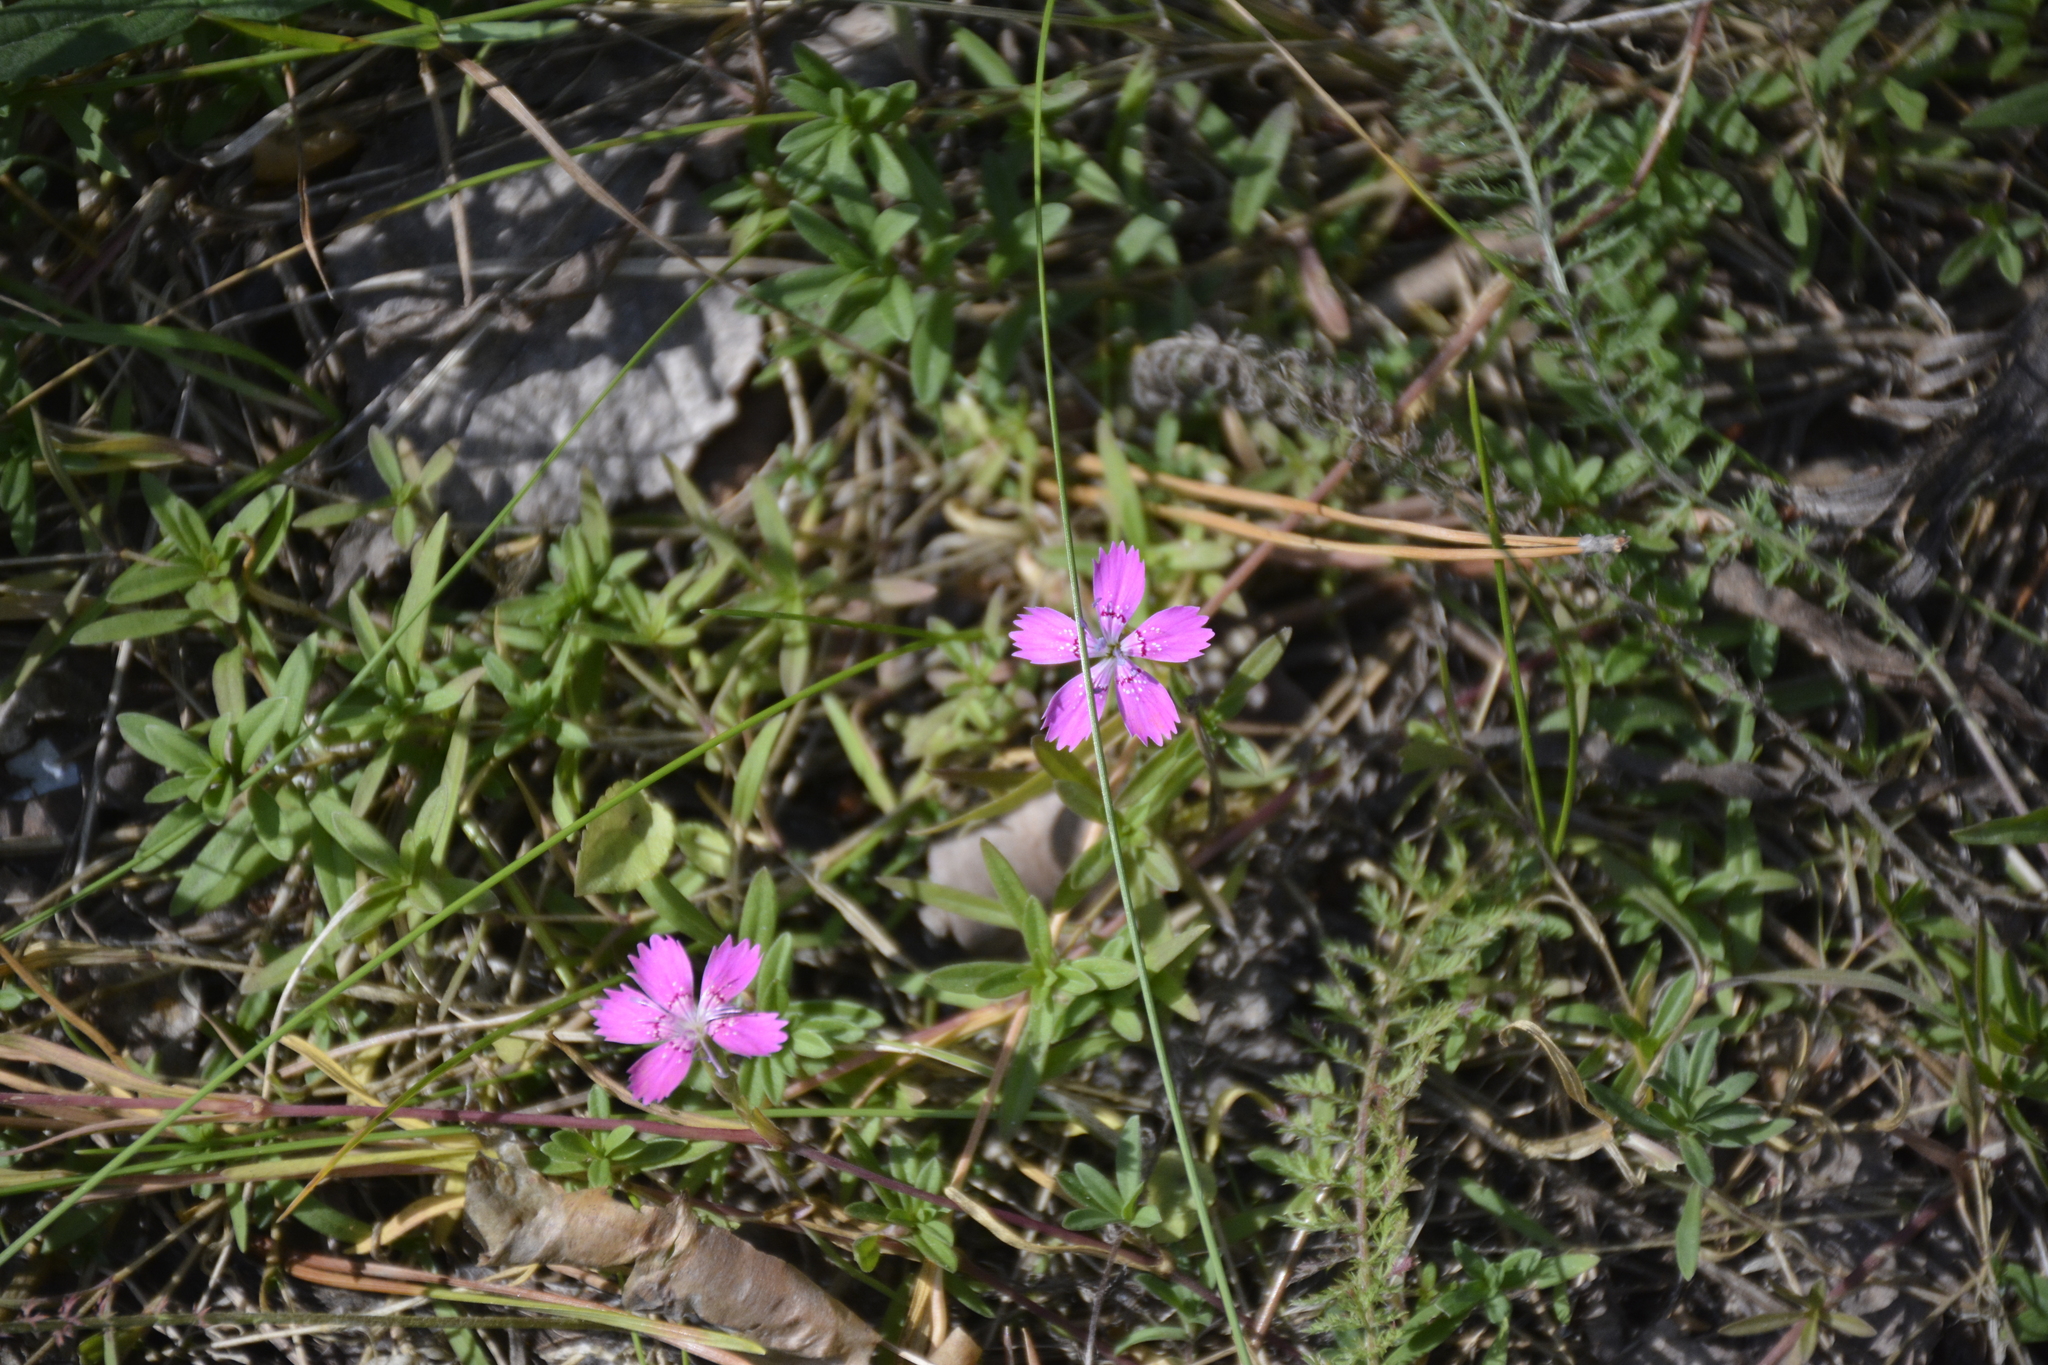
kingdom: Plantae
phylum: Tracheophyta
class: Magnoliopsida
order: Caryophyllales
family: Caryophyllaceae
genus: Dianthus
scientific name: Dianthus deltoides
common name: Maiden pink
